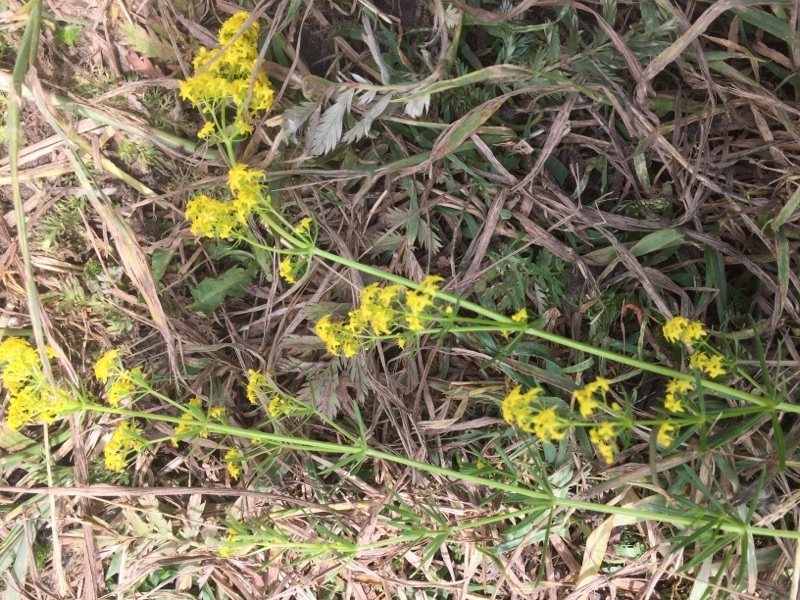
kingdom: Plantae
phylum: Tracheophyta
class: Magnoliopsida
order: Gentianales
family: Rubiaceae
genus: Galium
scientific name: Galium verum
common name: Lady's bedstraw
